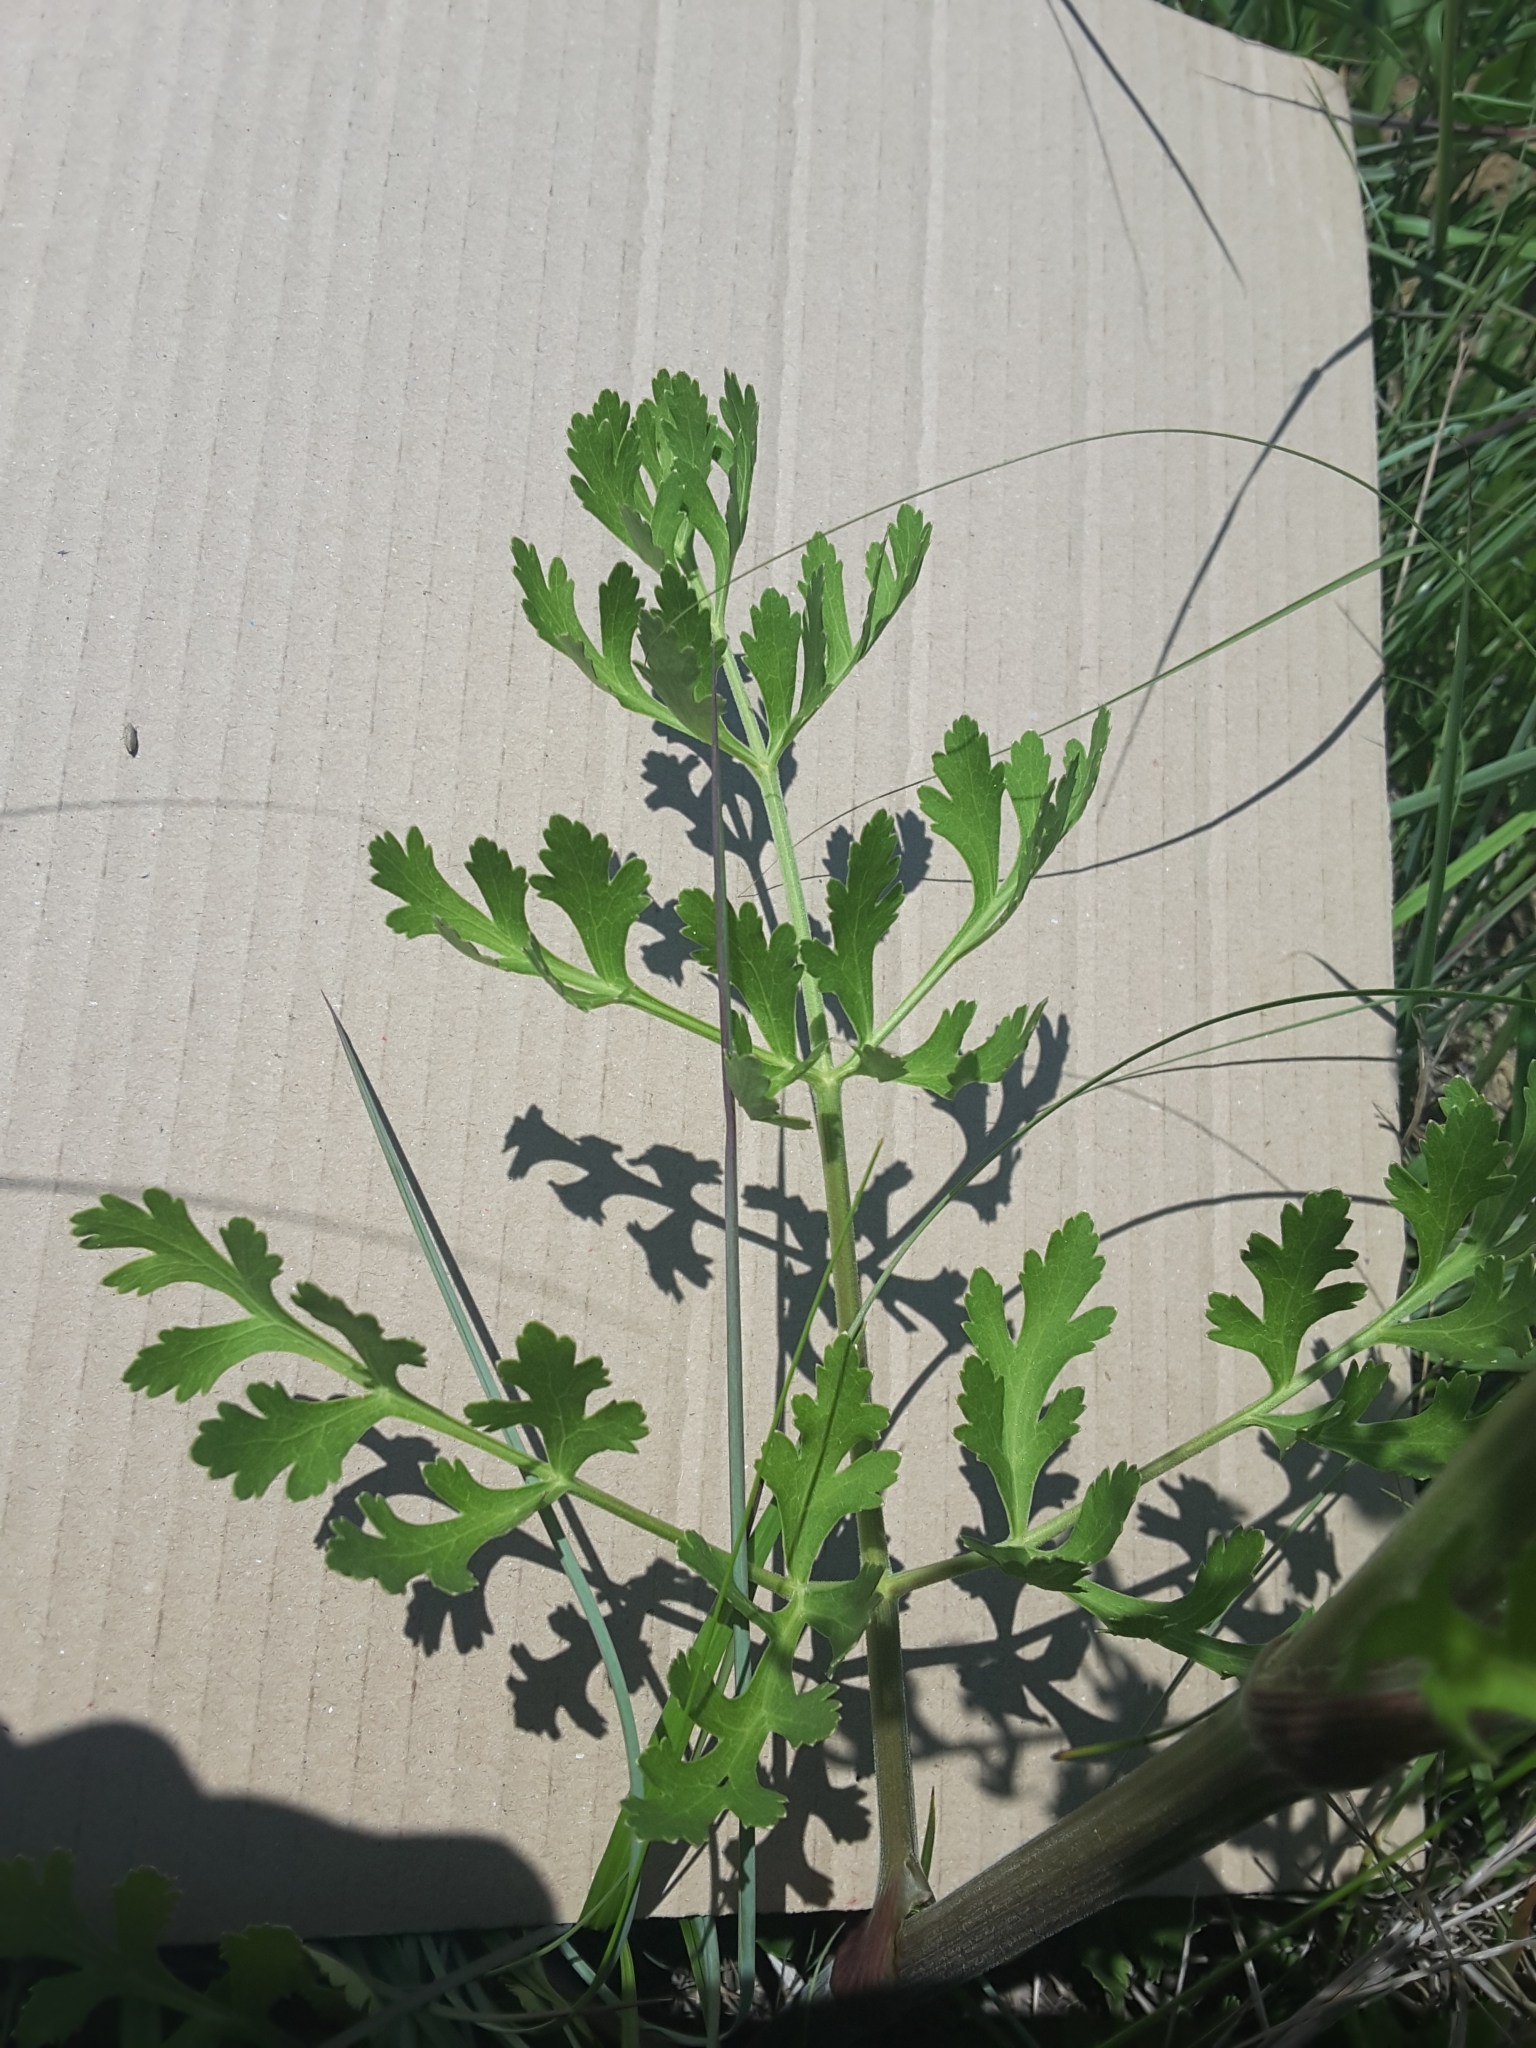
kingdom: Plantae
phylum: Tracheophyta
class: Magnoliopsida
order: Apiales
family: Apiaceae
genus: Polytaenia
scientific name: Polytaenia texana
